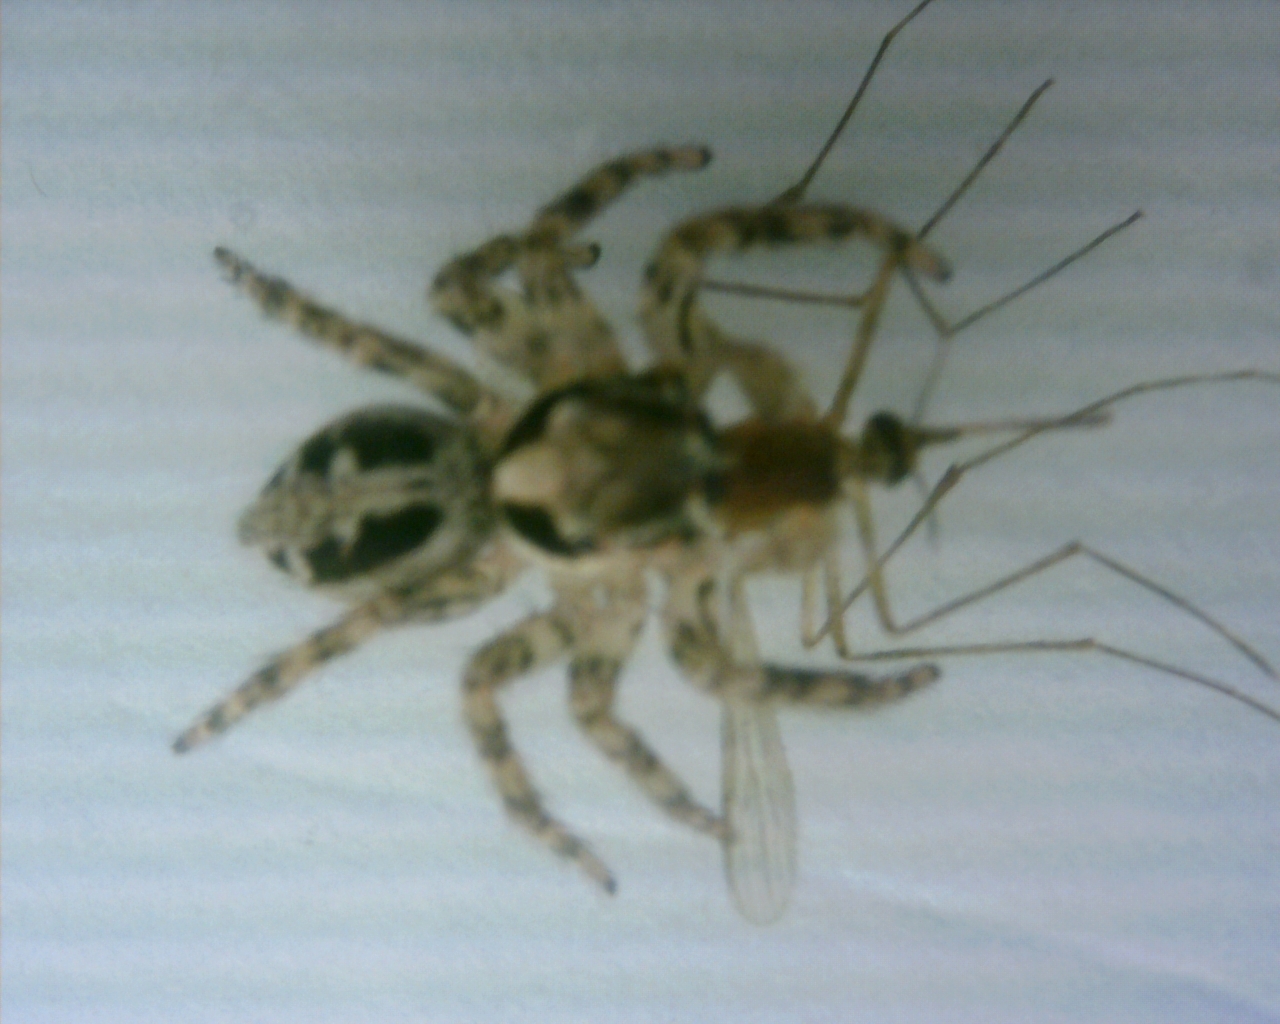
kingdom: Animalia
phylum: Arthropoda
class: Arachnida
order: Araneae
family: Salticidae
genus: Plexippus
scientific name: Plexippus petersi
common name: Jumping spider
